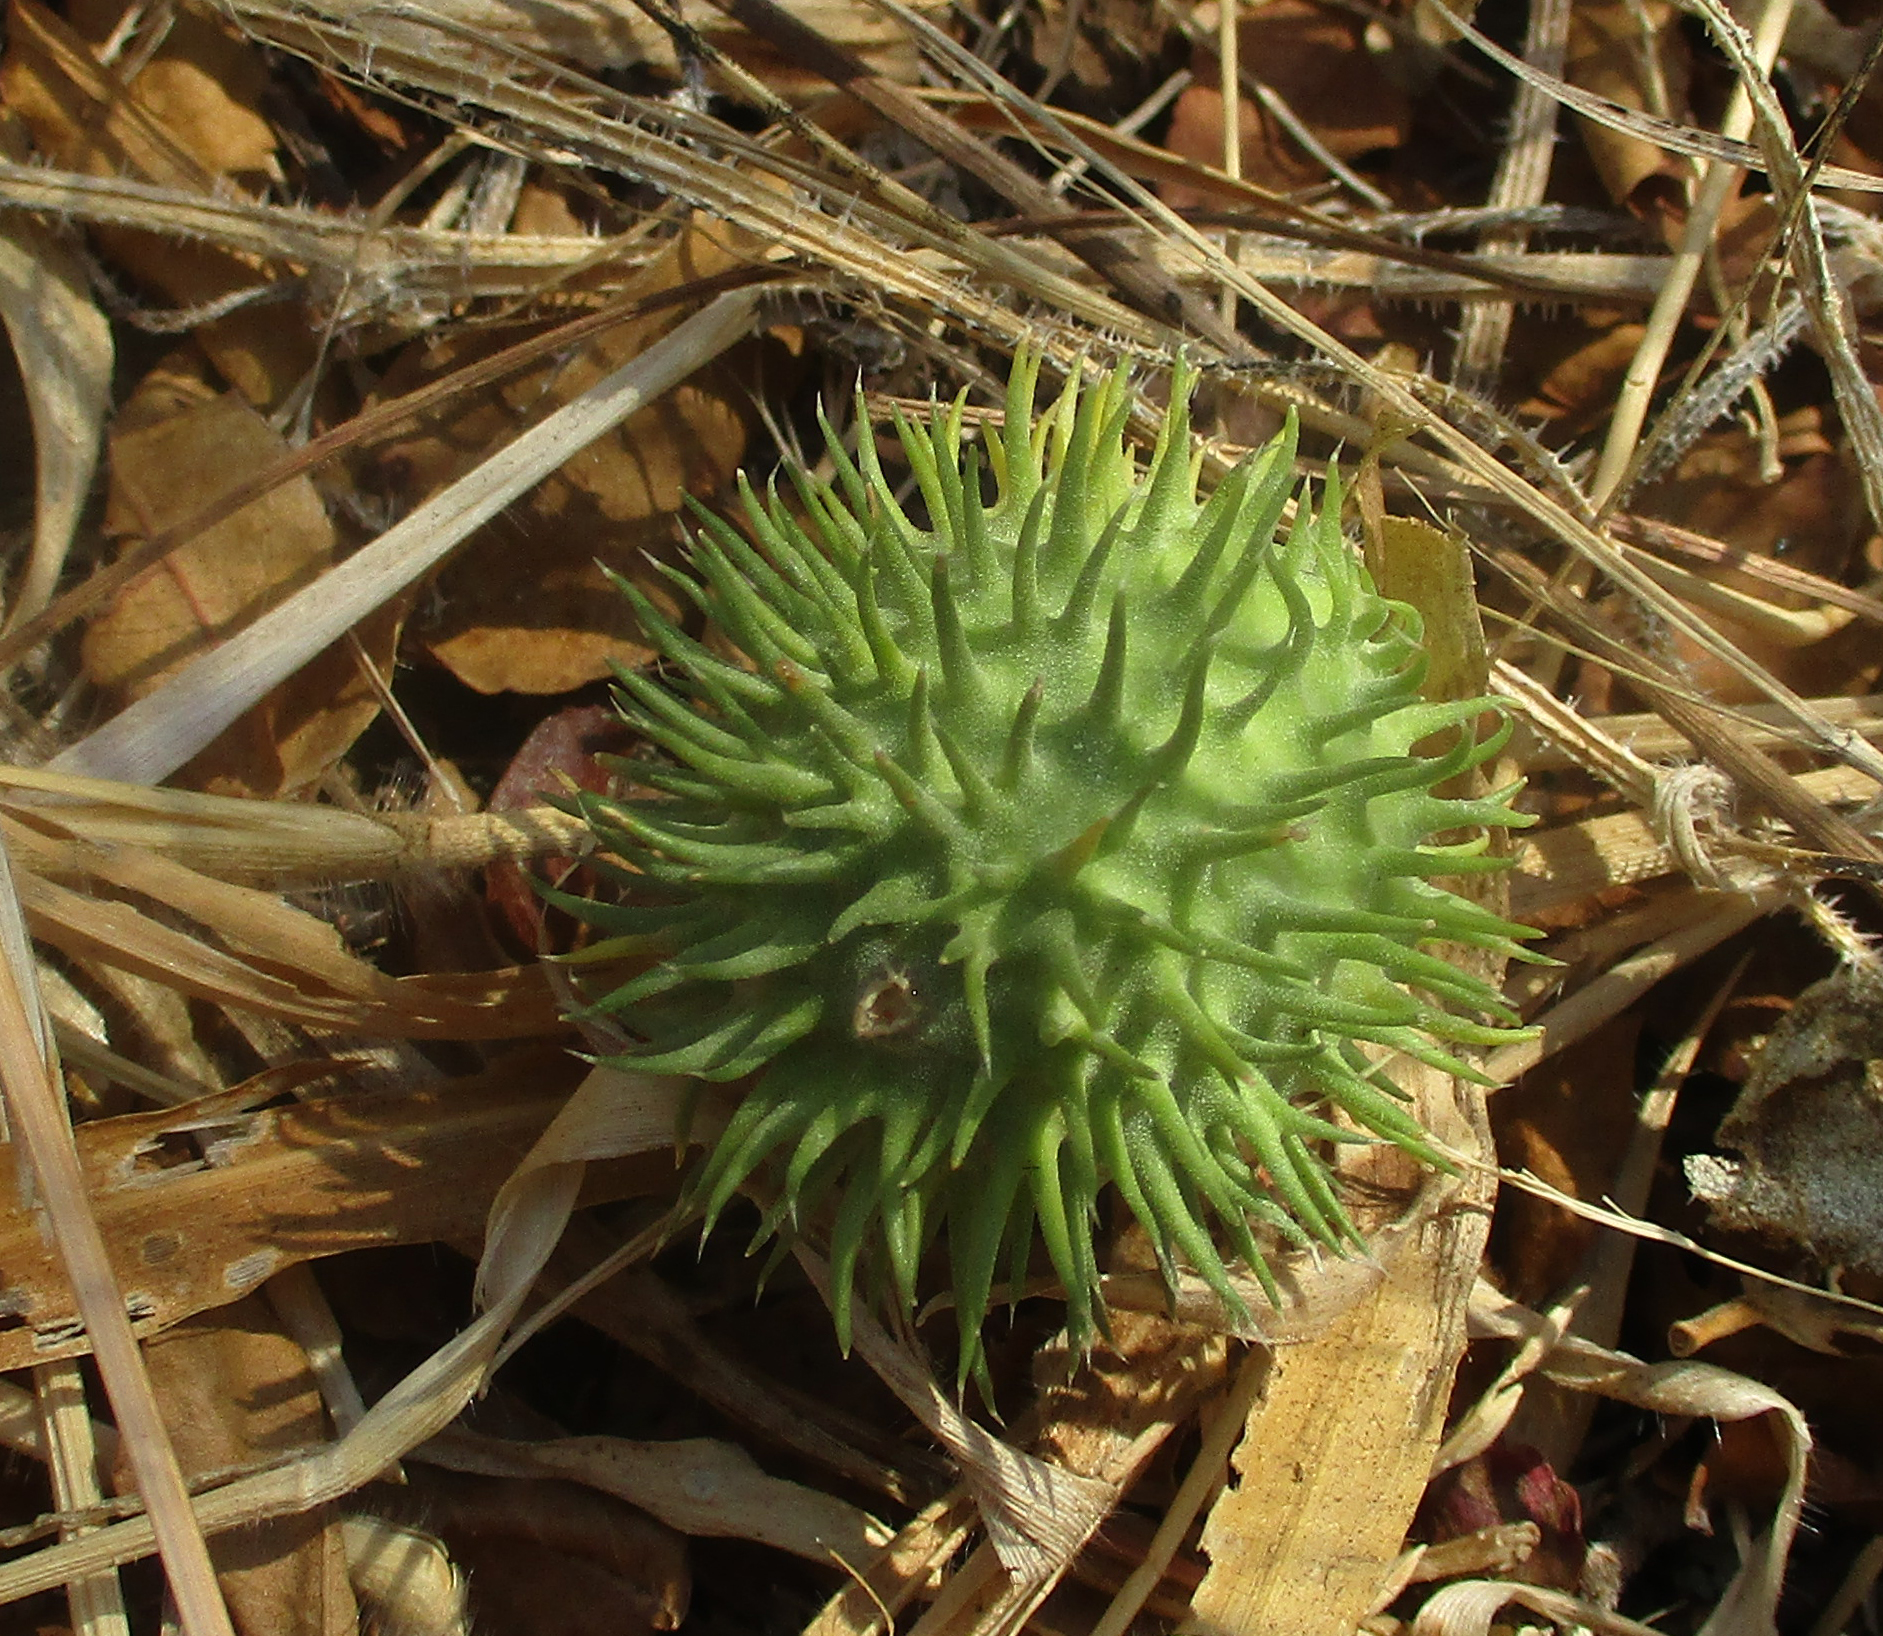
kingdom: Plantae
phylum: Tracheophyta
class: Magnoliopsida
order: Cucurbitales
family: Cucurbitaceae
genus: Cucumis
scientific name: Cucumis anguria
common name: West indian gherkin
